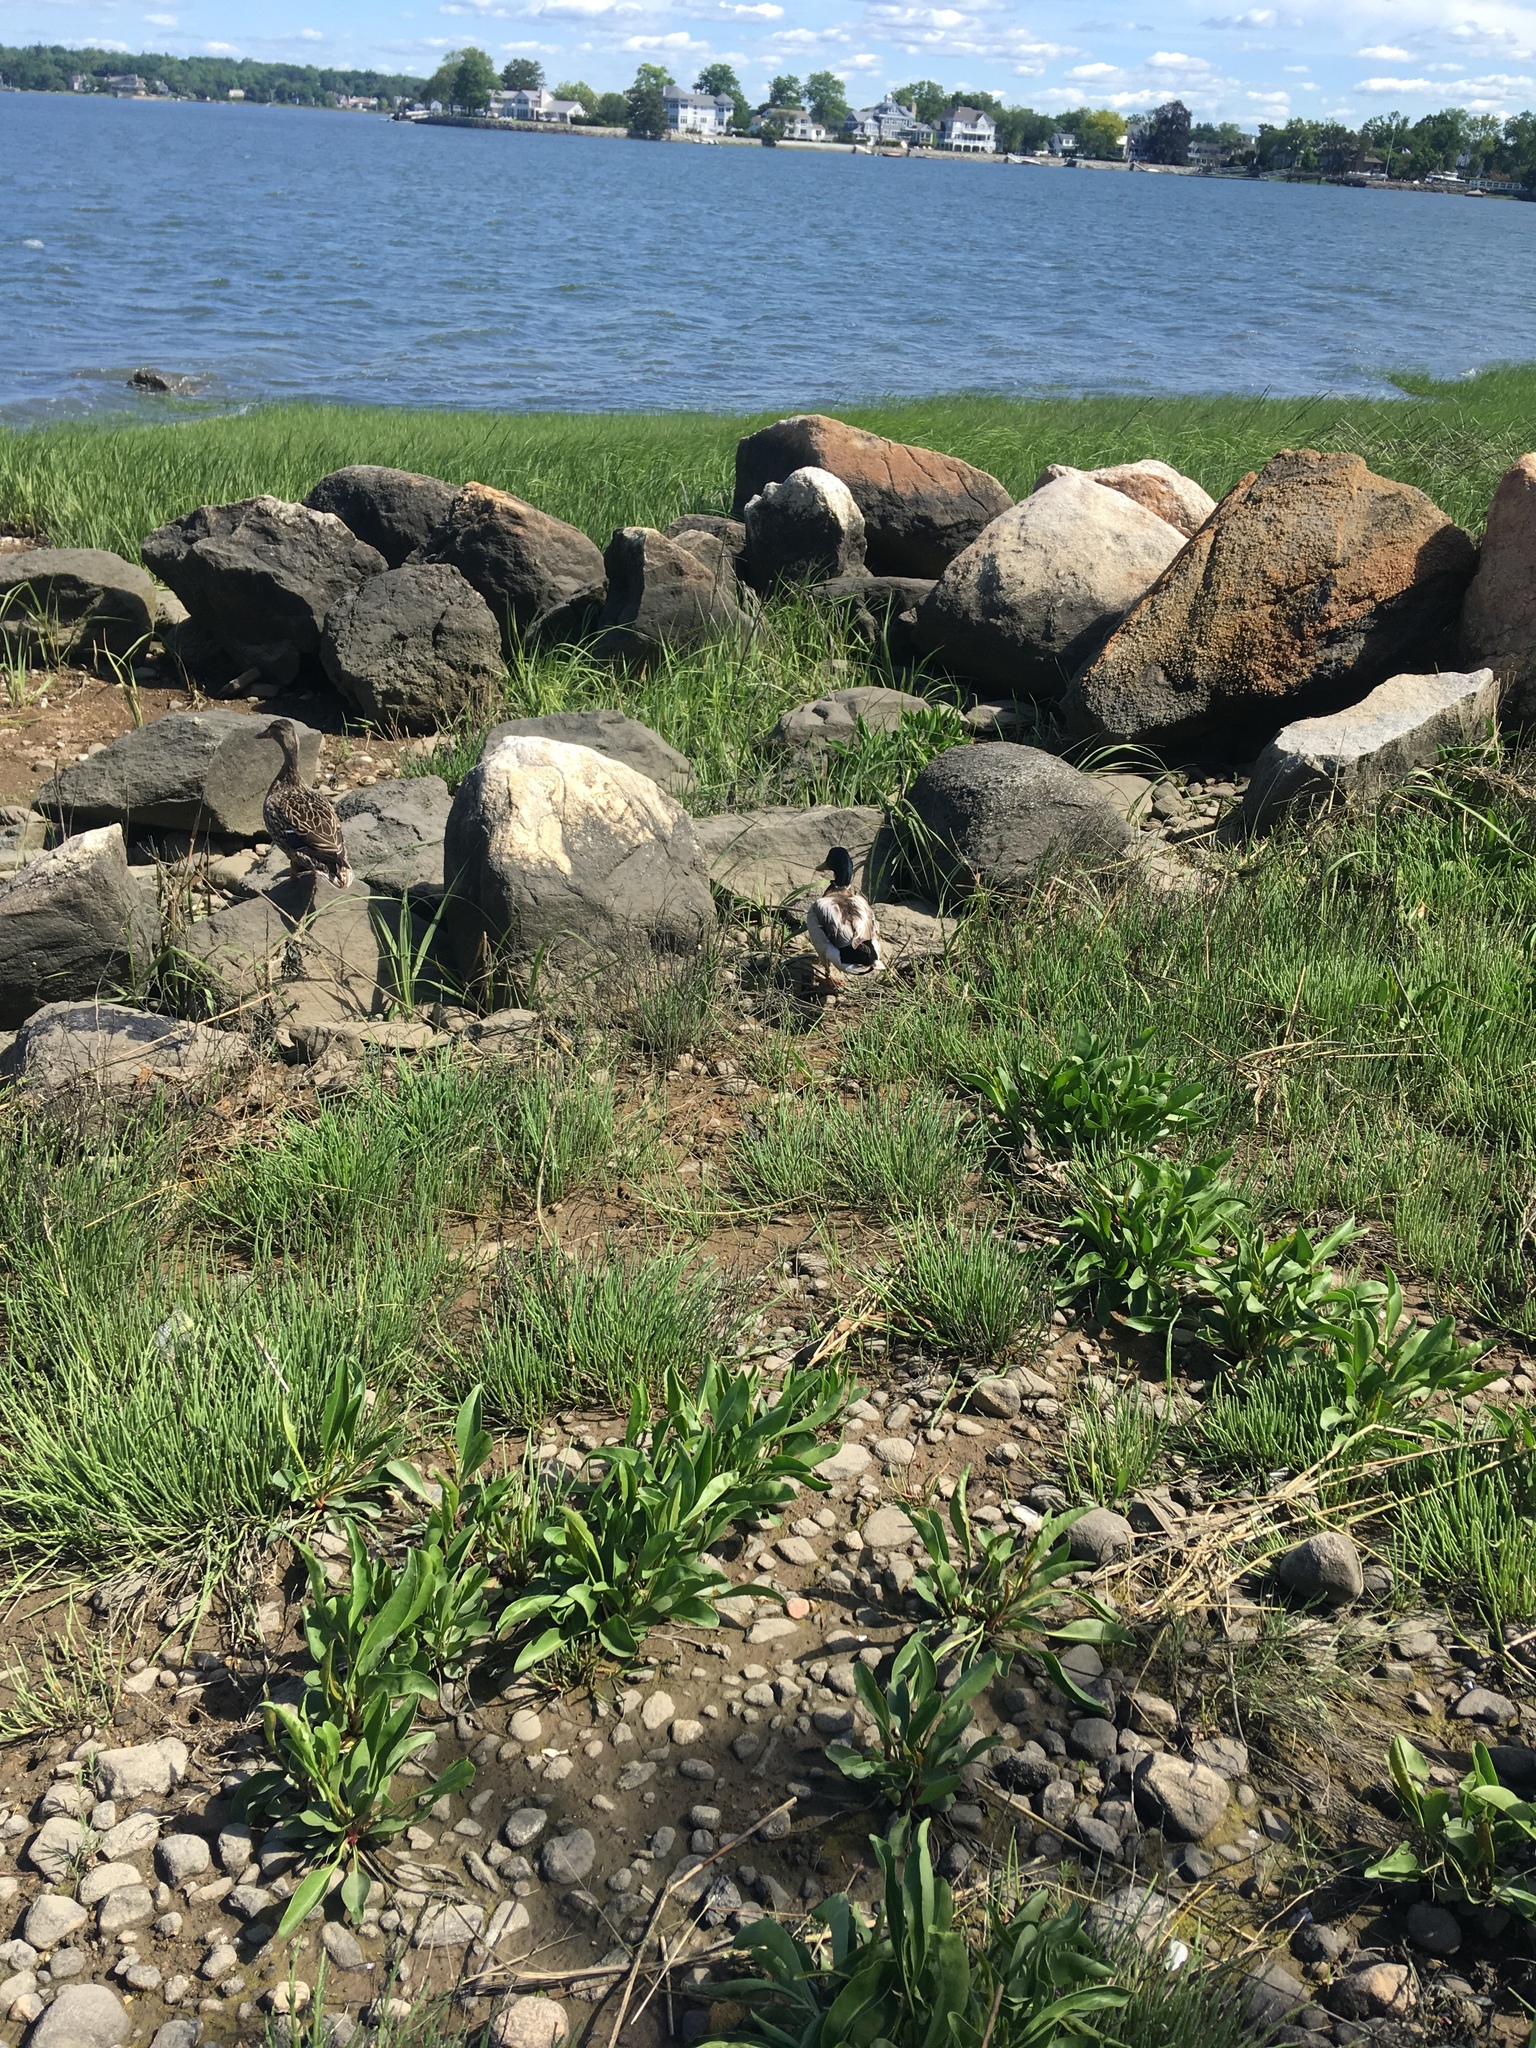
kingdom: Animalia
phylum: Chordata
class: Aves
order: Anseriformes
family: Anatidae
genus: Anas
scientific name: Anas platyrhynchos
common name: Mallard
